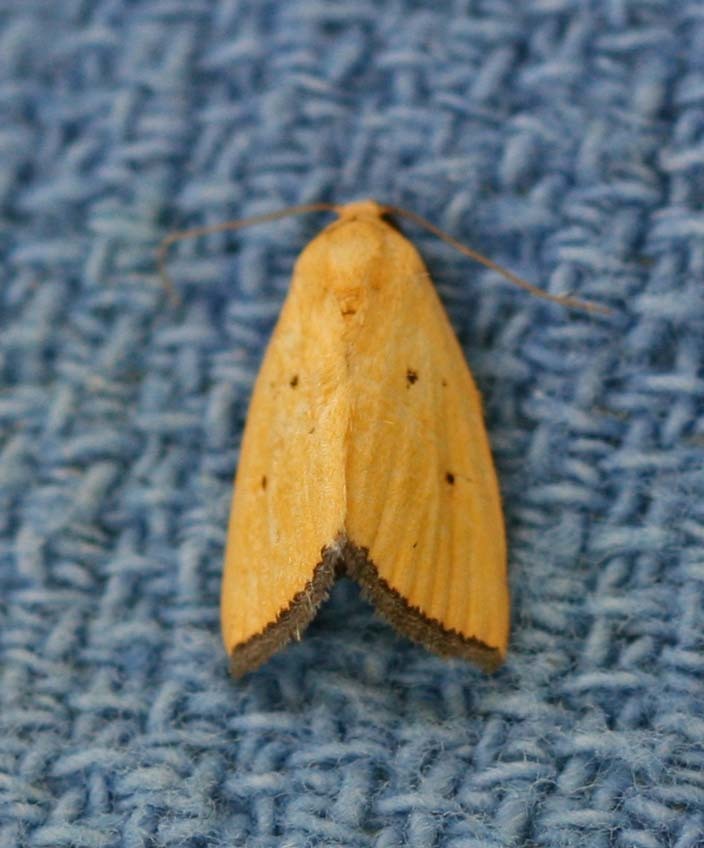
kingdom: Animalia
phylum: Arthropoda
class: Insecta
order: Lepidoptera
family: Noctuidae
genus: Marimatha
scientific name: Marimatha nigrofimbria
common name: Black-bordered lemon moth
